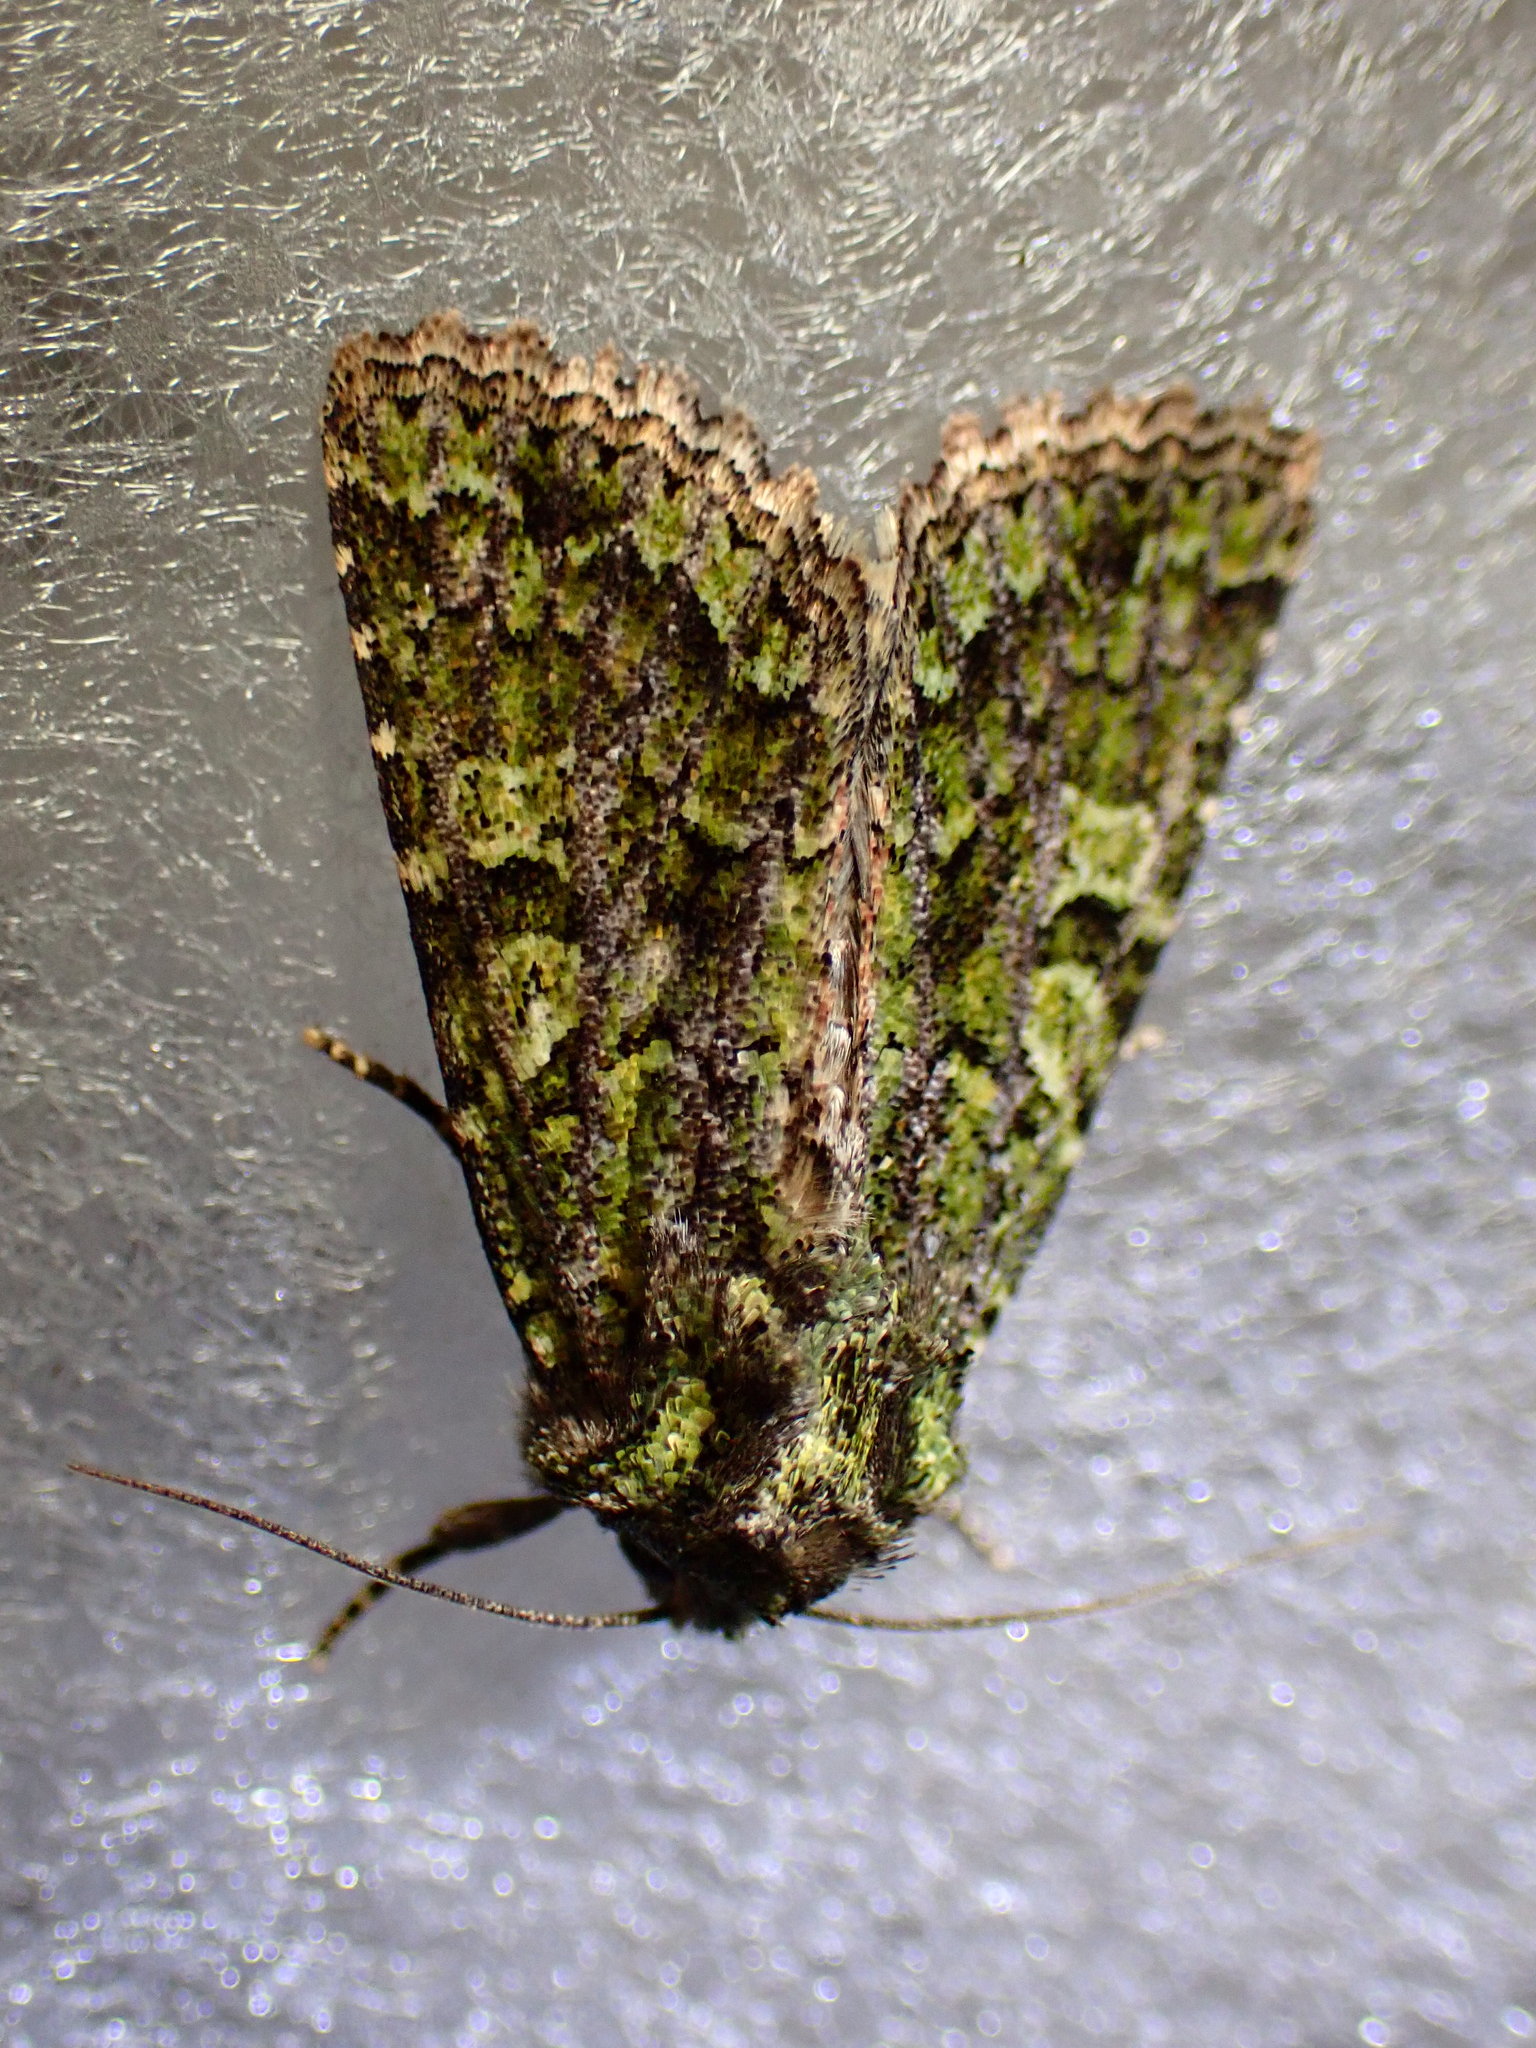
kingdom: Animalia
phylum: Arthropoda
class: Insecta
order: Lepidoptera
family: Noctuidae
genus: Aseptis
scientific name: Aseptis marina
